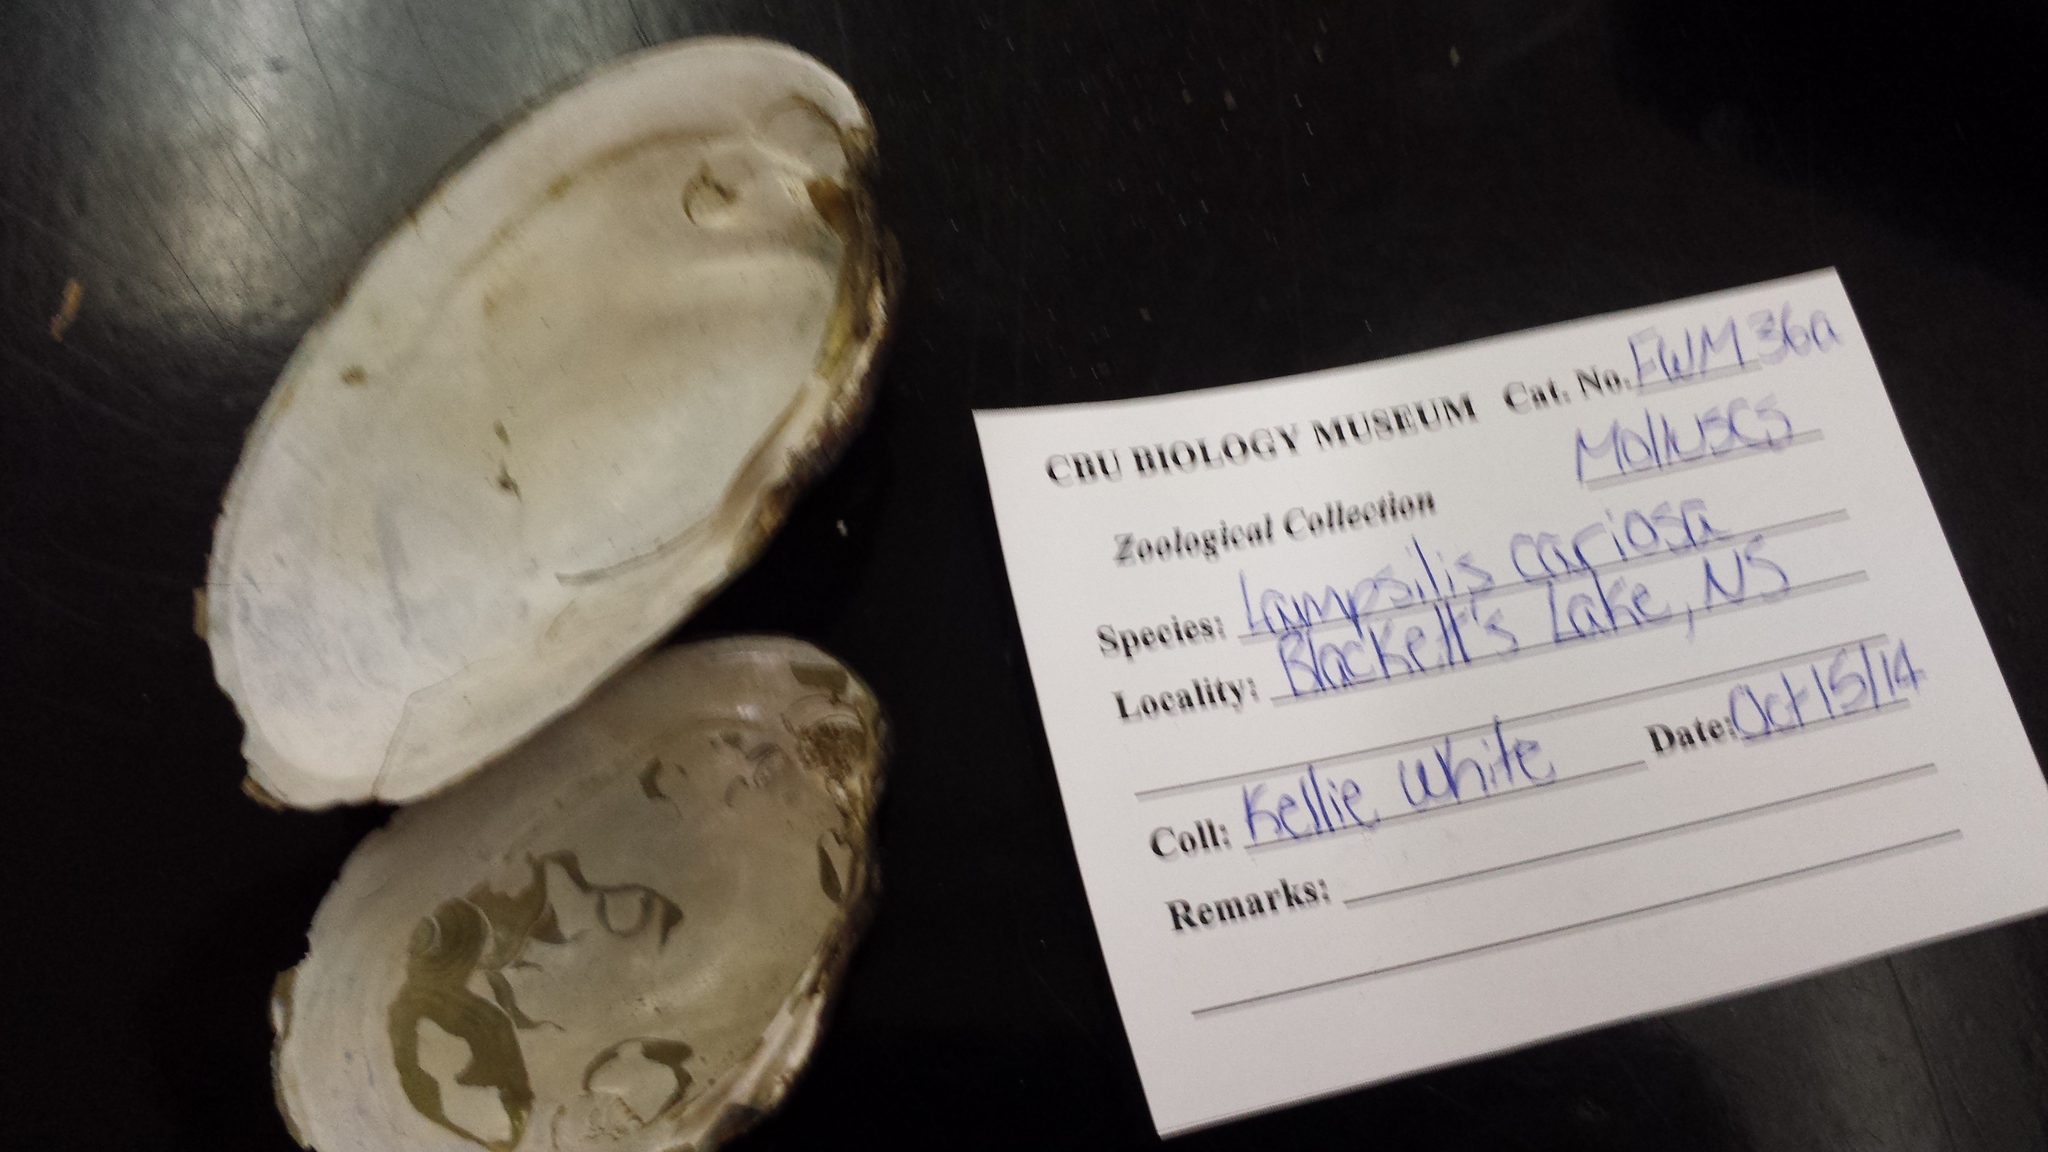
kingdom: Animalia
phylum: Mollusca
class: Bivalvia
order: Unionida
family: Unionidae
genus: Lampsilis
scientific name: Lampsilis cariosa
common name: Yellow lampmussel
